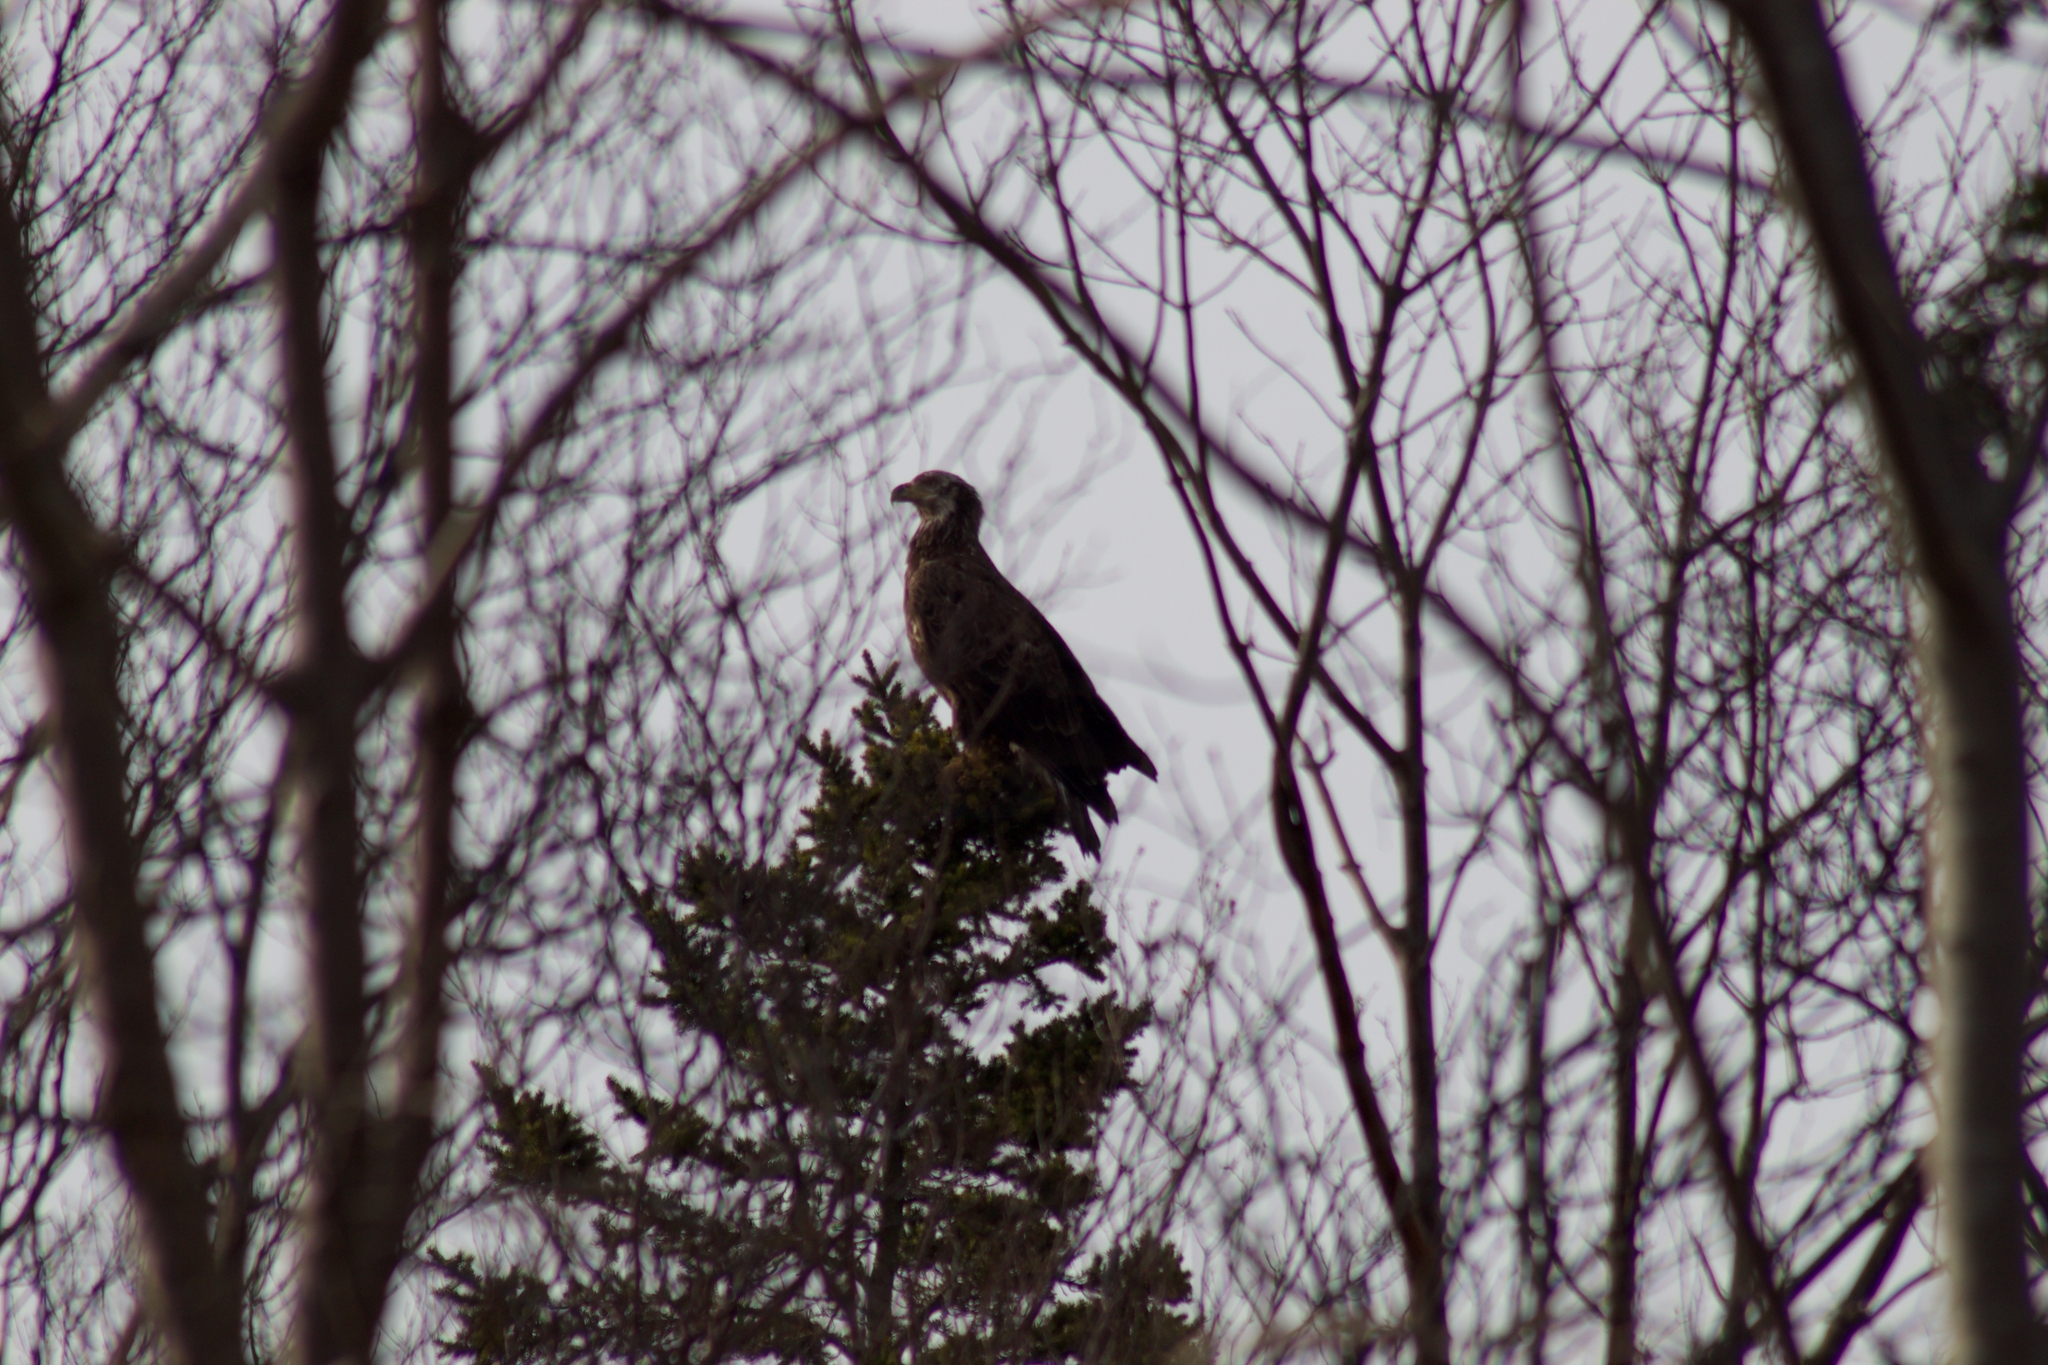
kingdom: Animalia
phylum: Chordata
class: Aves
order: Accipitriformes
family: Accipitridae
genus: Haliaeetus
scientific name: Haliaeetus leucocephalus
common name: Bald eagle
